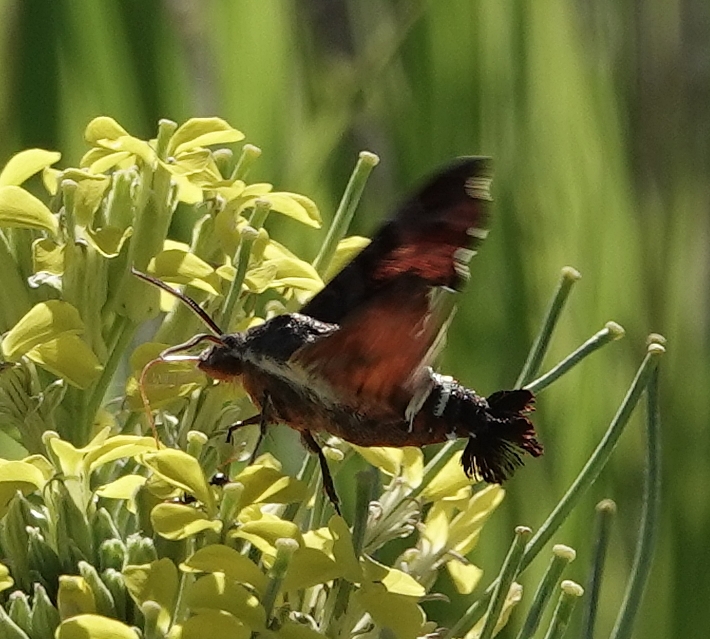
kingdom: Animalia
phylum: Arthropoda
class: Insecta
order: Lepidoptera
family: Sphingidae
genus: Amphion
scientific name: Amphion floridensis
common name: Nessus sphinx
